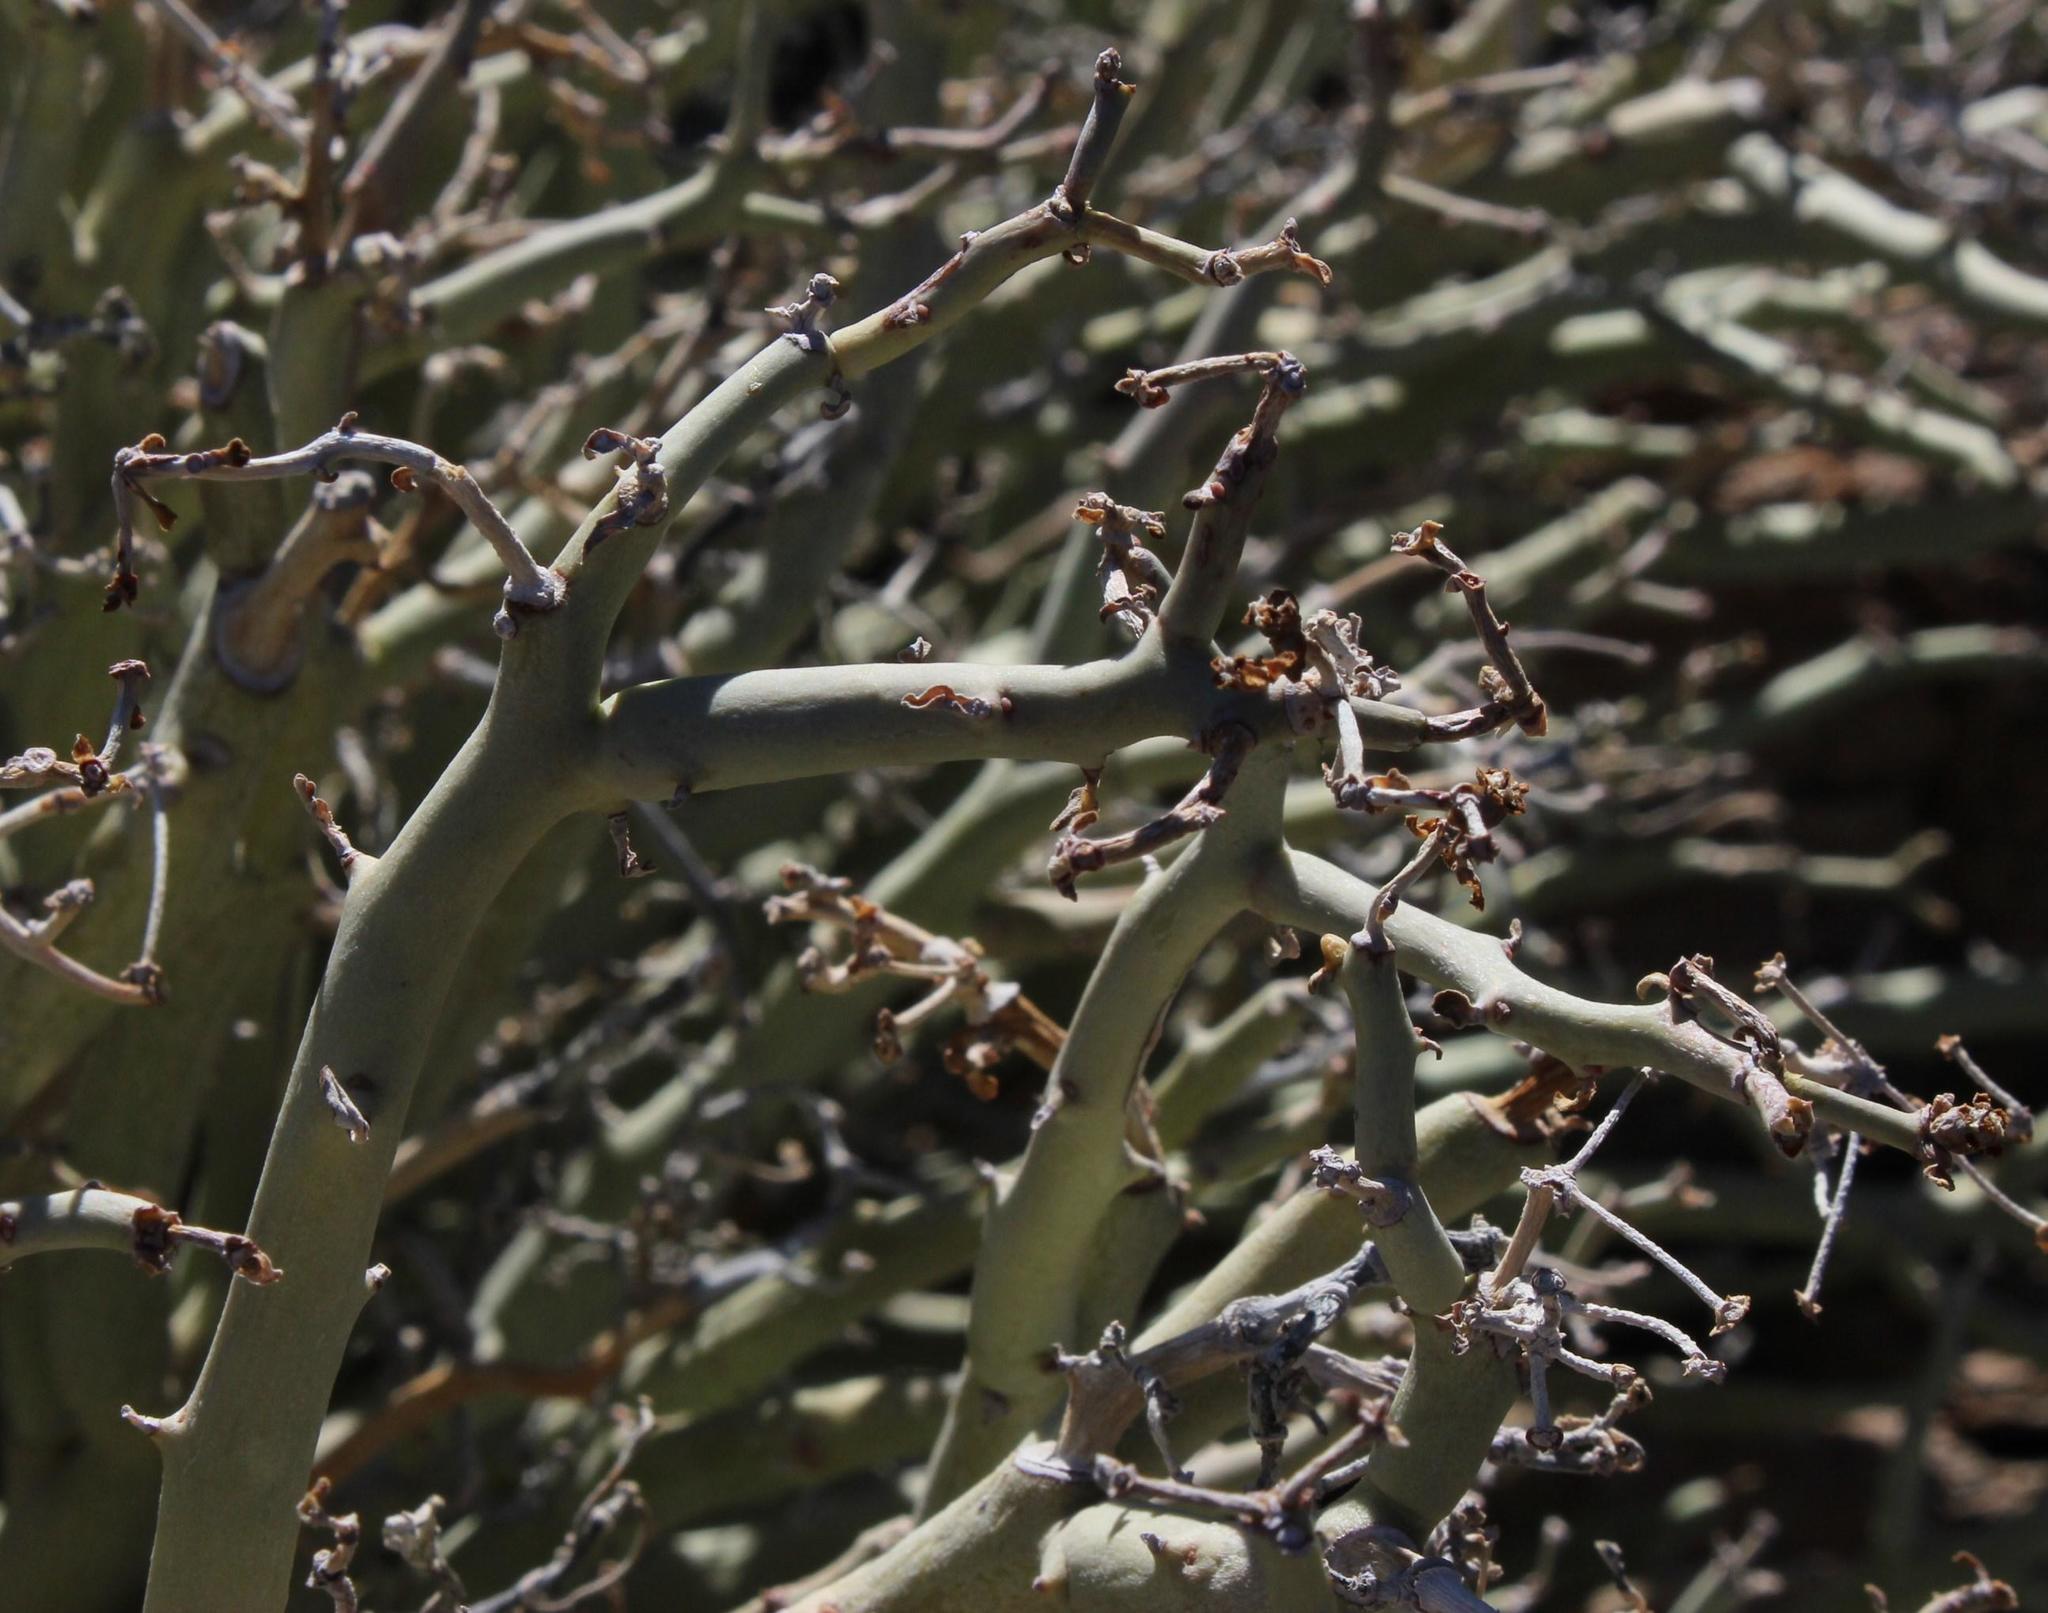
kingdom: Plantae
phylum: Tracheophyta
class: Magnoliopsida
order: Malpighiales
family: Euphorbiaceae
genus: Euphorbia
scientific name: Euphorbia gariepina
